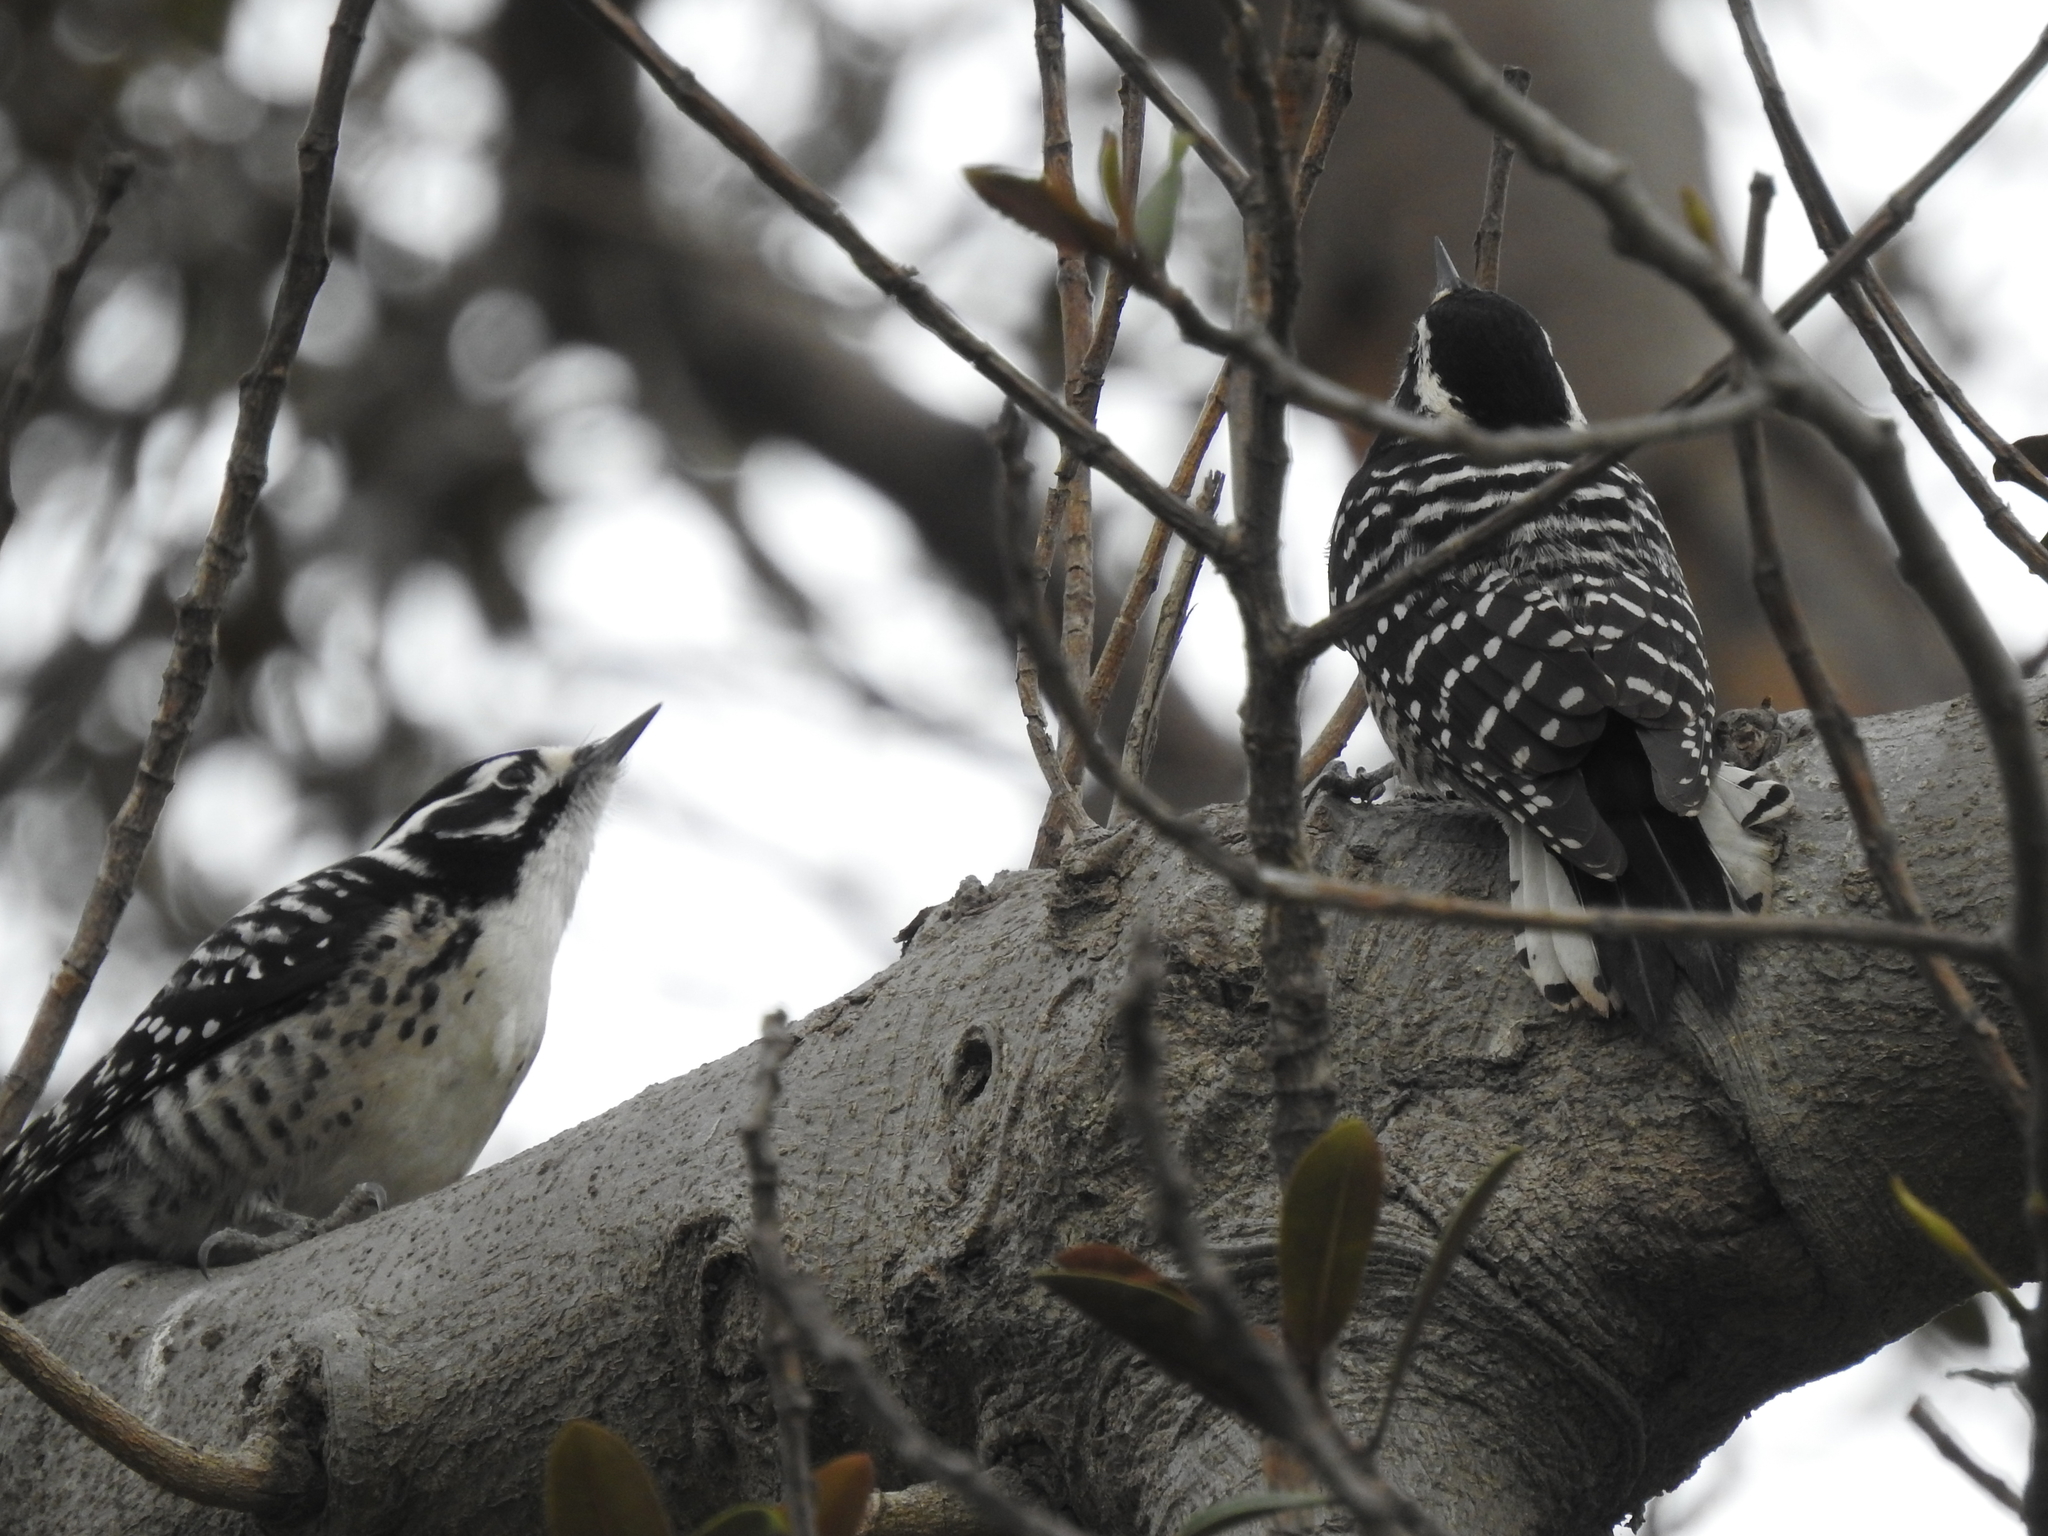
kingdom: Animalia
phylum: Chordata
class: Aves
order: Piciformes
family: Picidae
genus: Dryobates
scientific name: Dryobates nuttallii
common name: Nuttall's woodpecker
